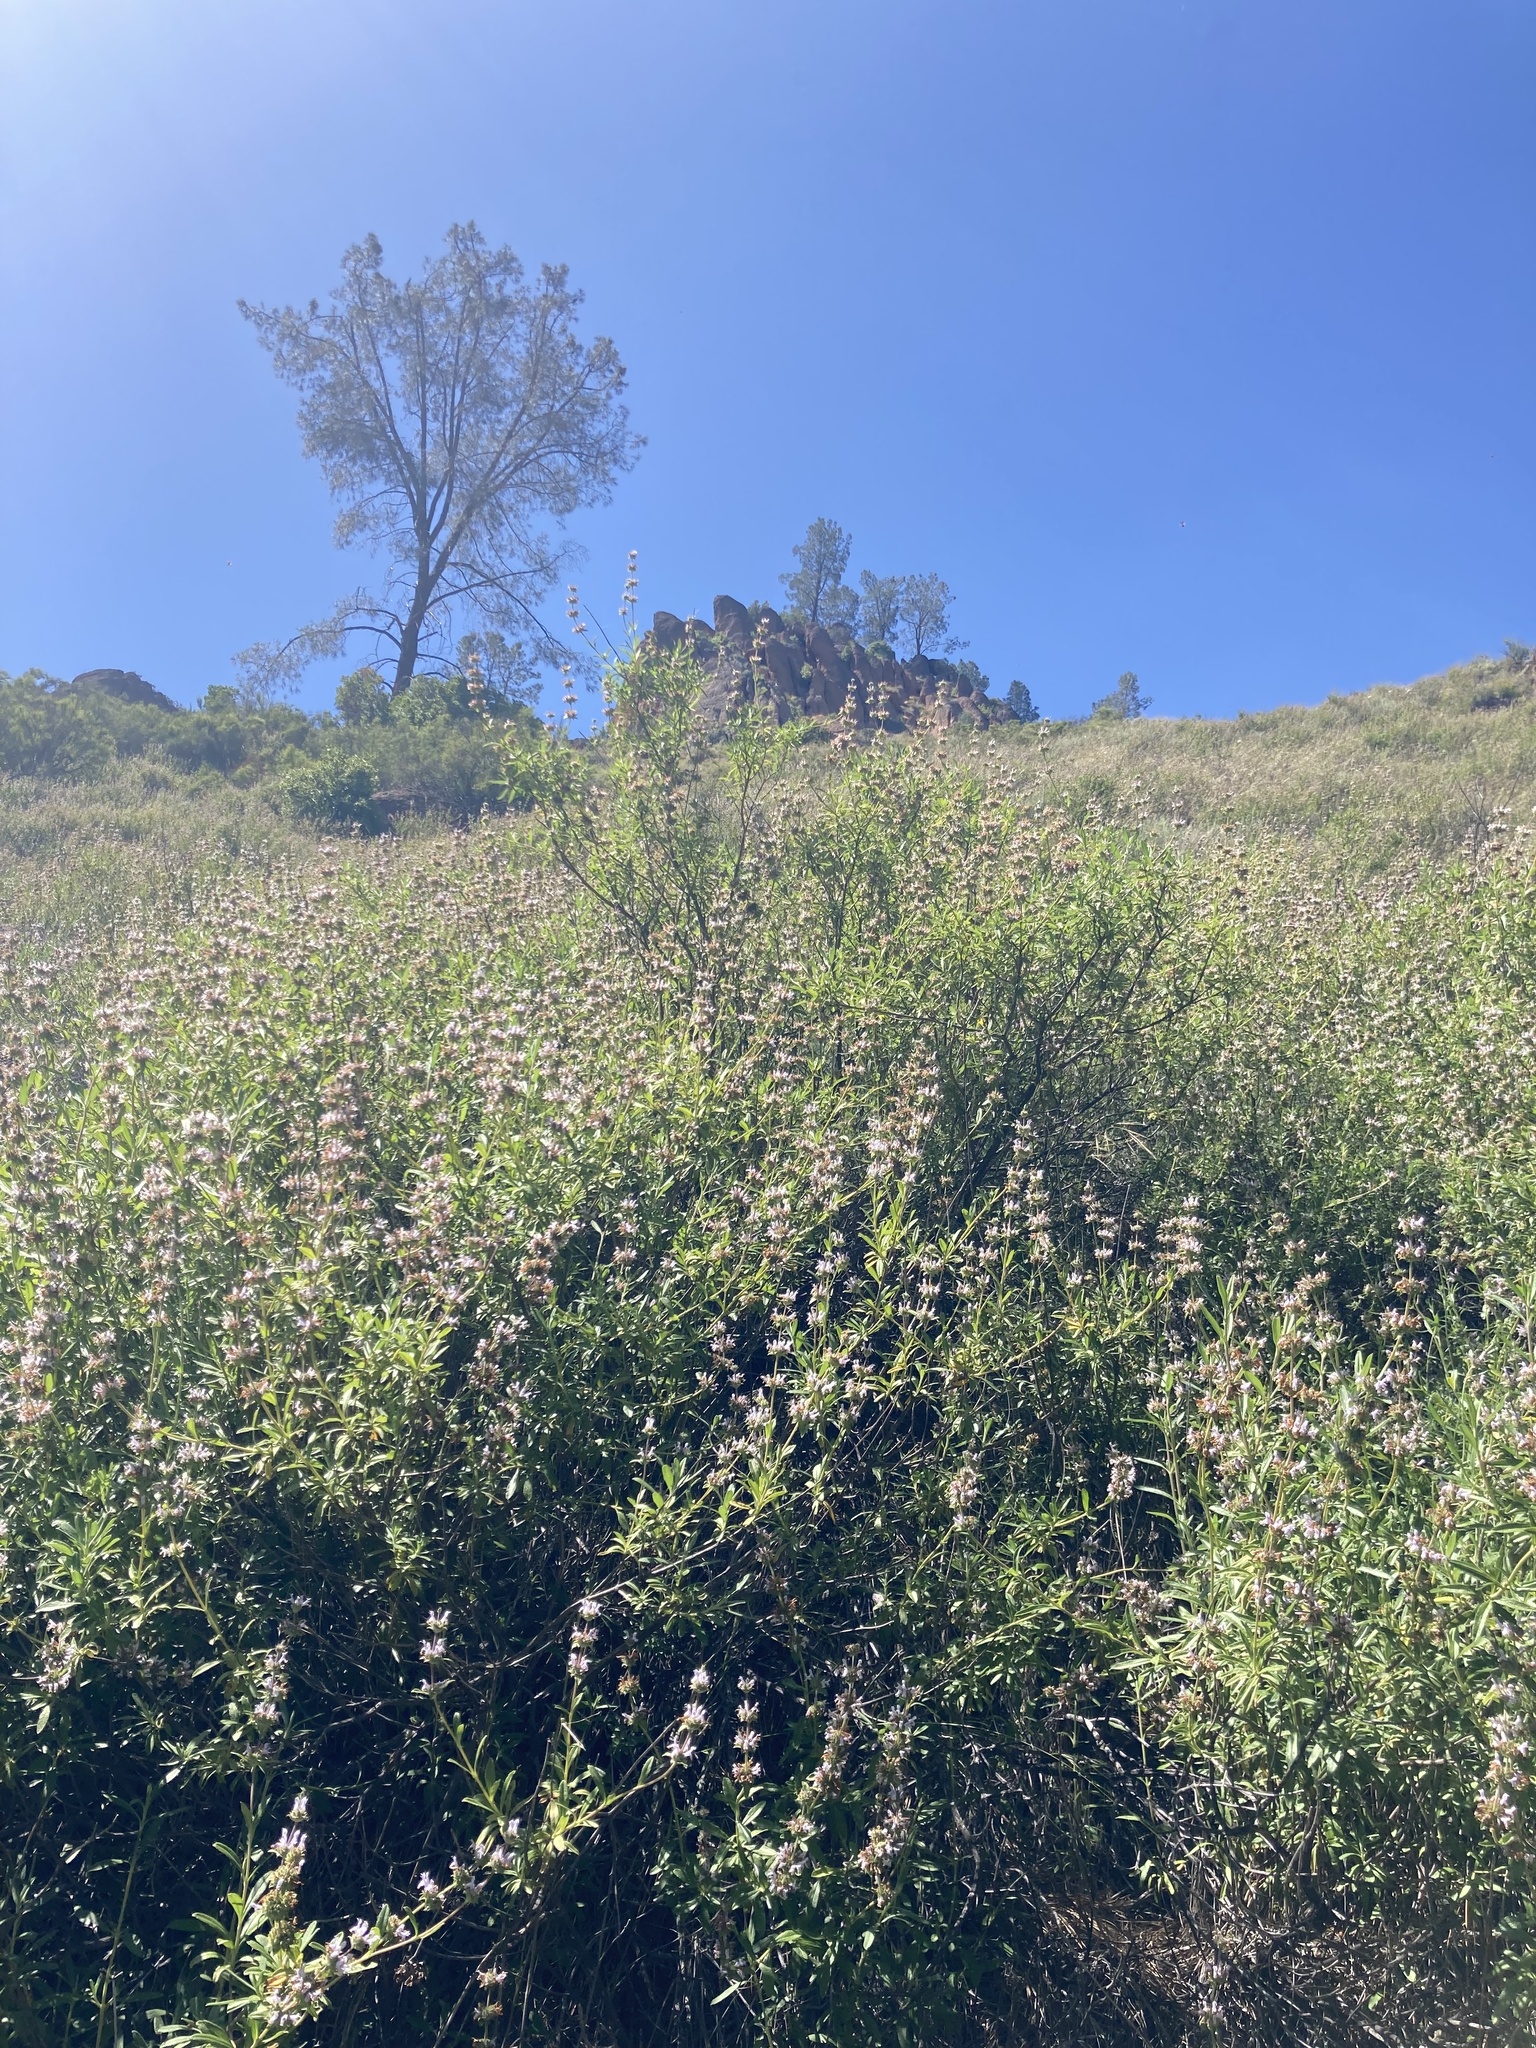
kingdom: Plantae
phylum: Tracheophyta
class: Magnoliopsida
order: Lamiales
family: Lamiaceae
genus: Salvia
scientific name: Salvia mellifera
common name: Black sage
